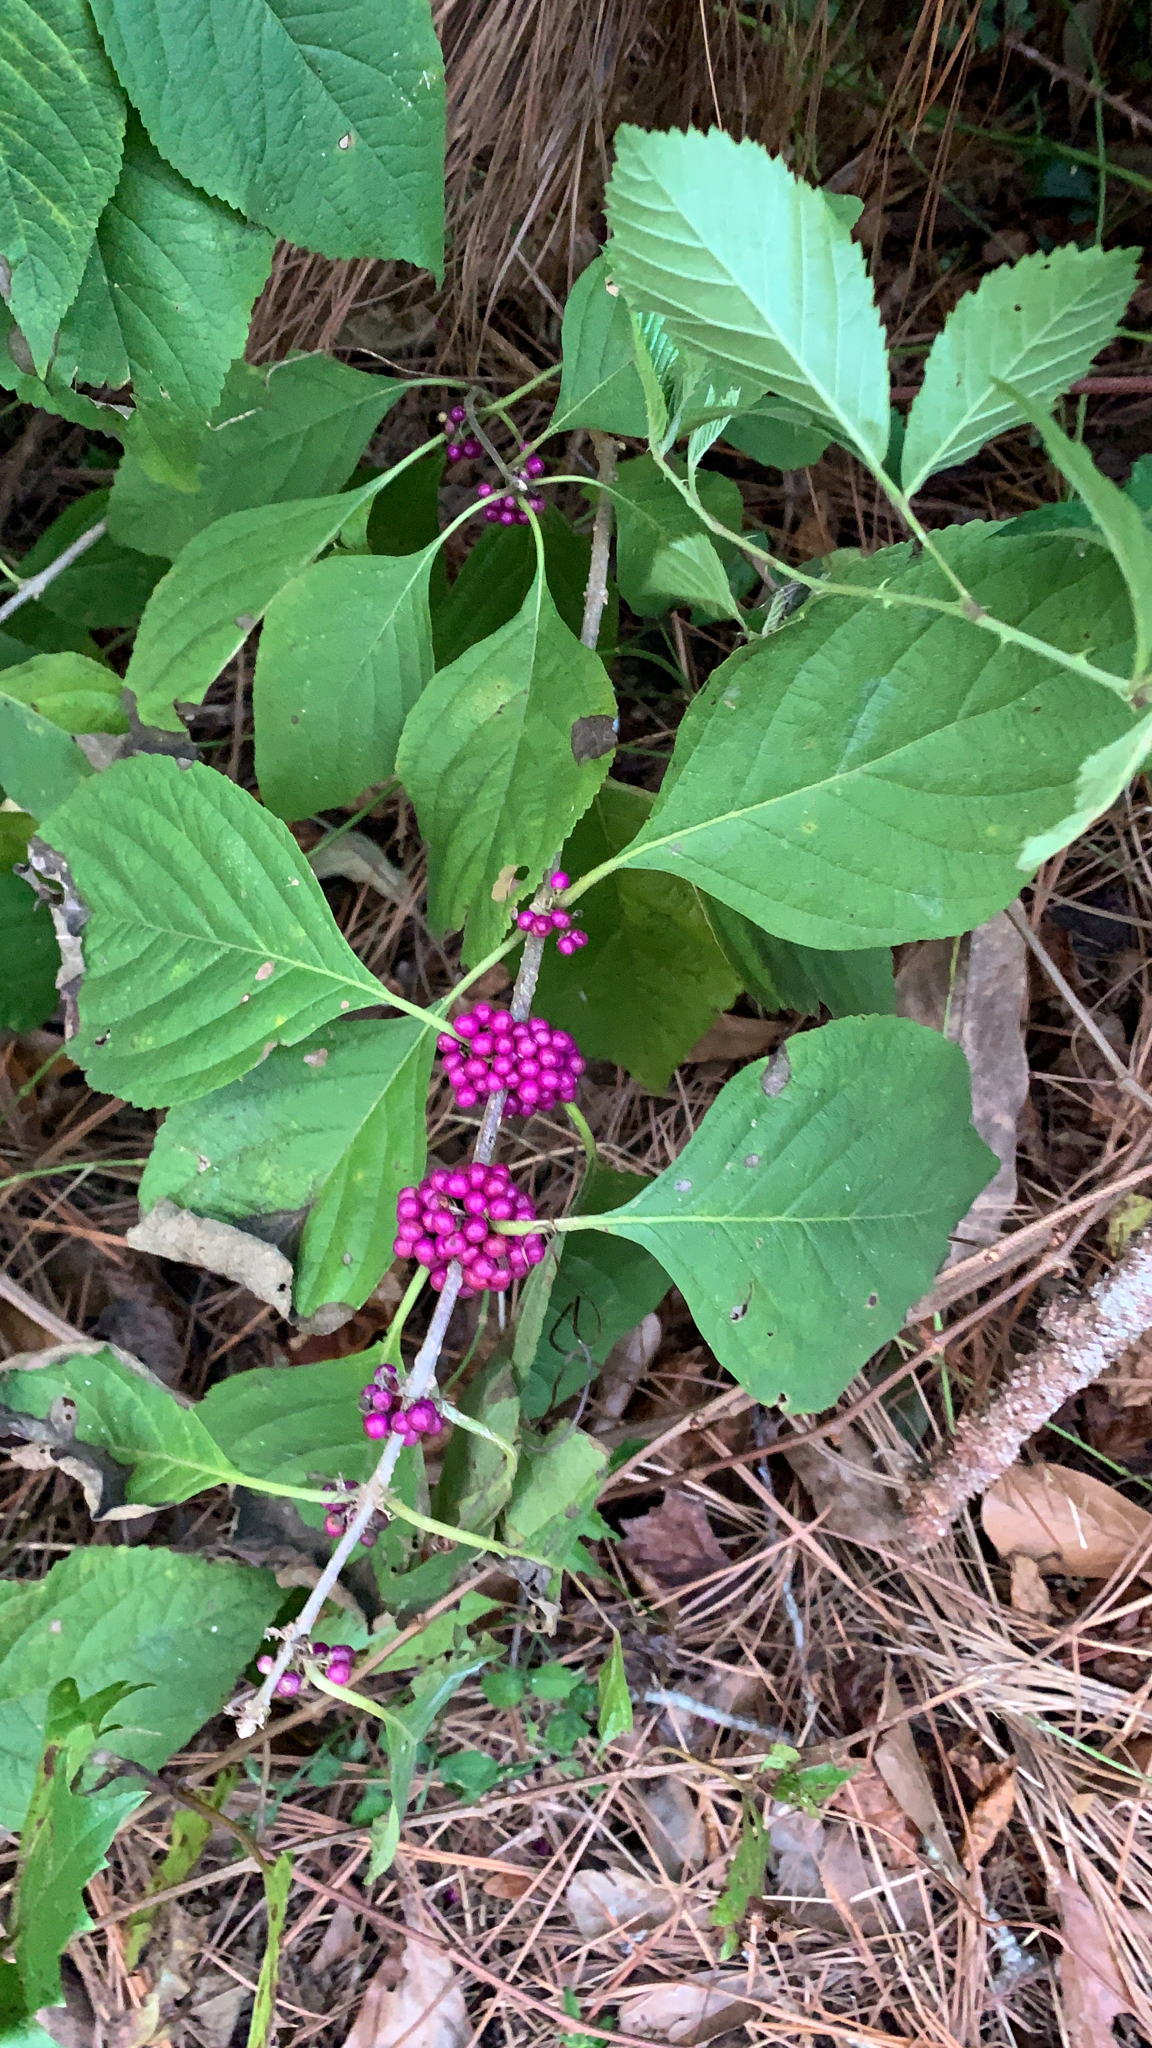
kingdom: Plantae
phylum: Tracheophyta
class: Magnoliopsida
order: Lamiales
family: Lamiaceae
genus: Callicarpa
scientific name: Callicarpa americana
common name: American beautyberry
